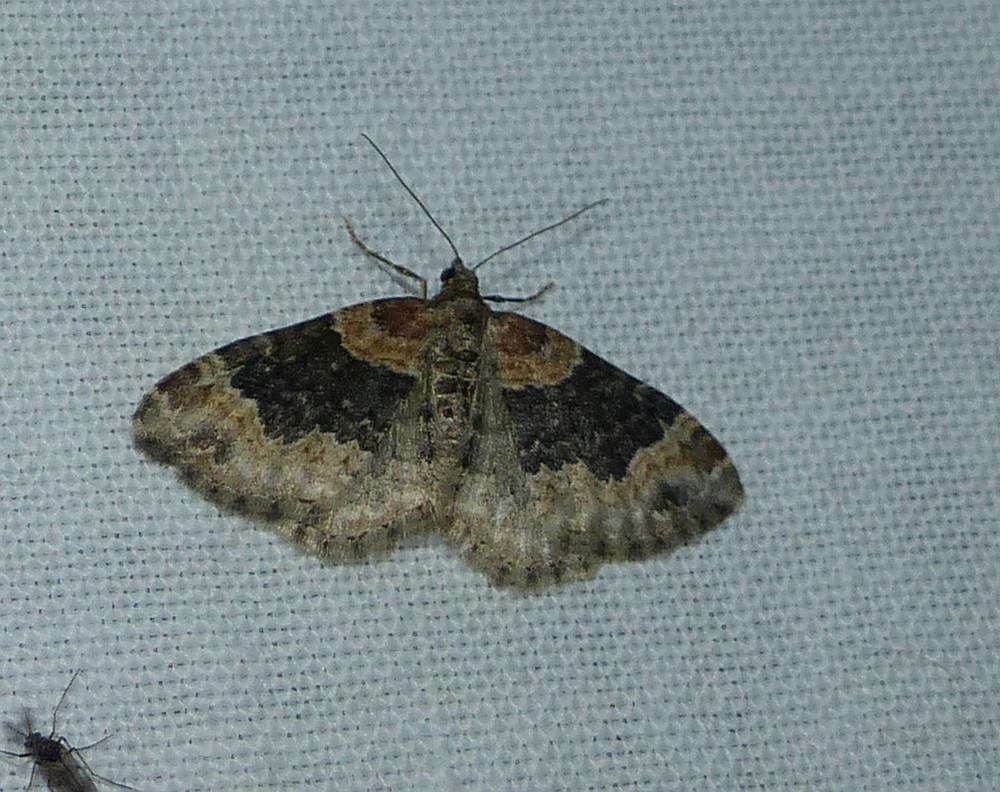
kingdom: Animalia
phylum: Arthropoda
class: Insecta
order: Lepidoptera
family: Geometridae
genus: Xanthorhoe
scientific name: Xanthorhoe ferrugata
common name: Dark-barred twin-spot carpet
